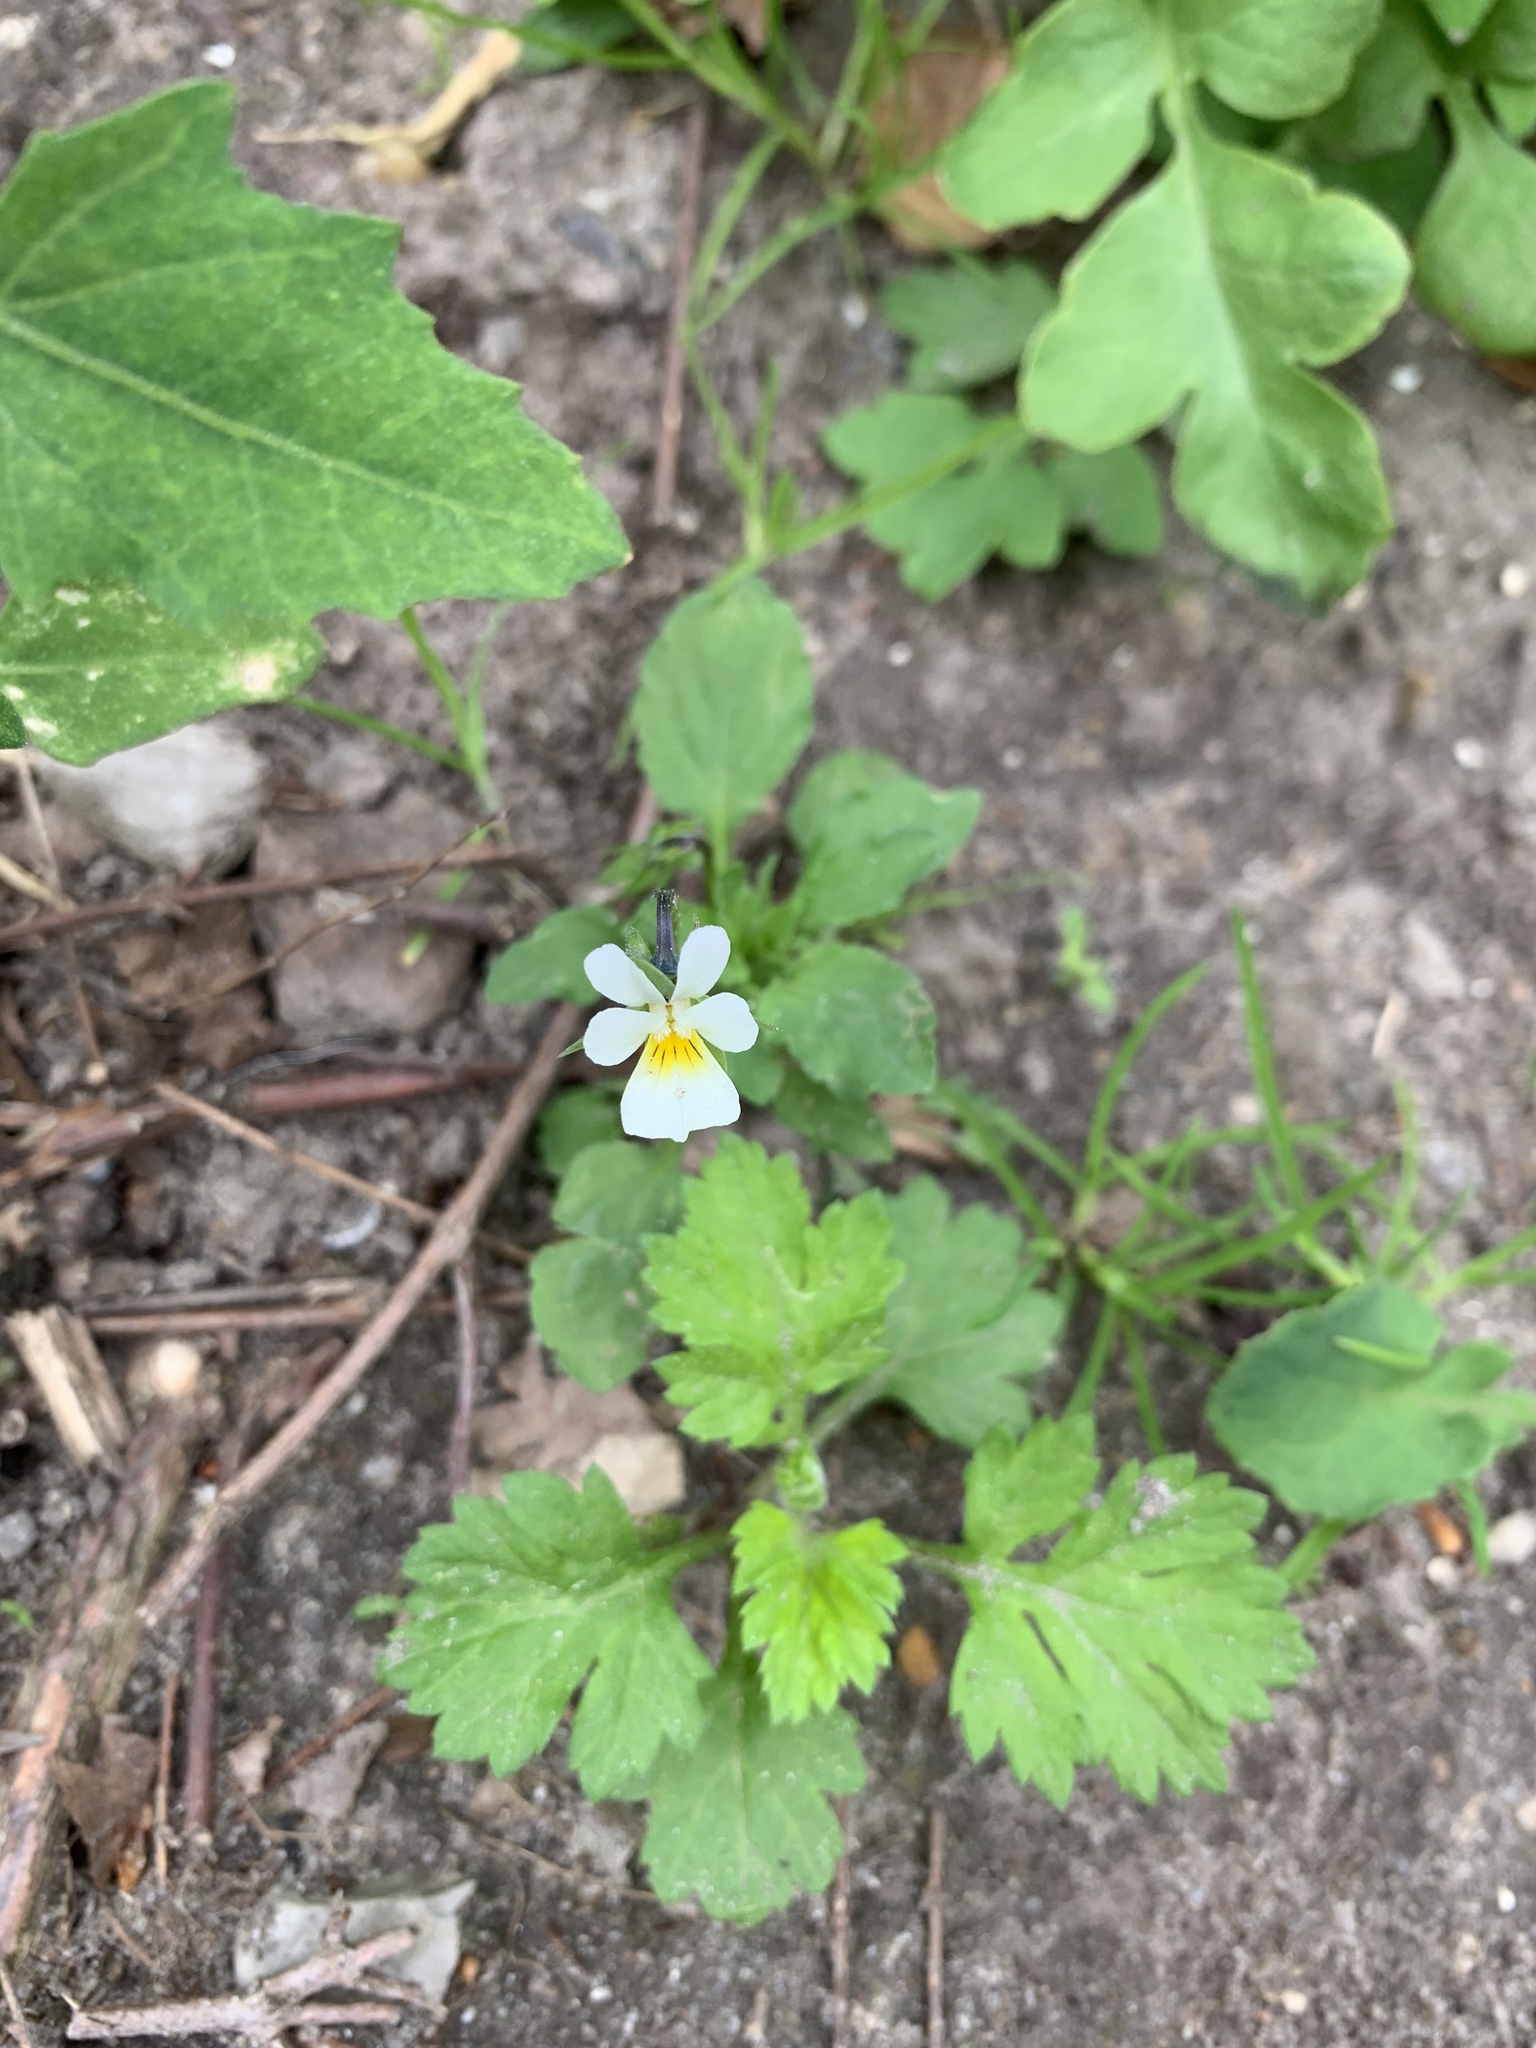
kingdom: Plantae
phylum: Tracheophyta
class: Magnoliopsida
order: Malpighiales
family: Violaceae
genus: Viola
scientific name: Viola arvensis
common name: Field pansy
